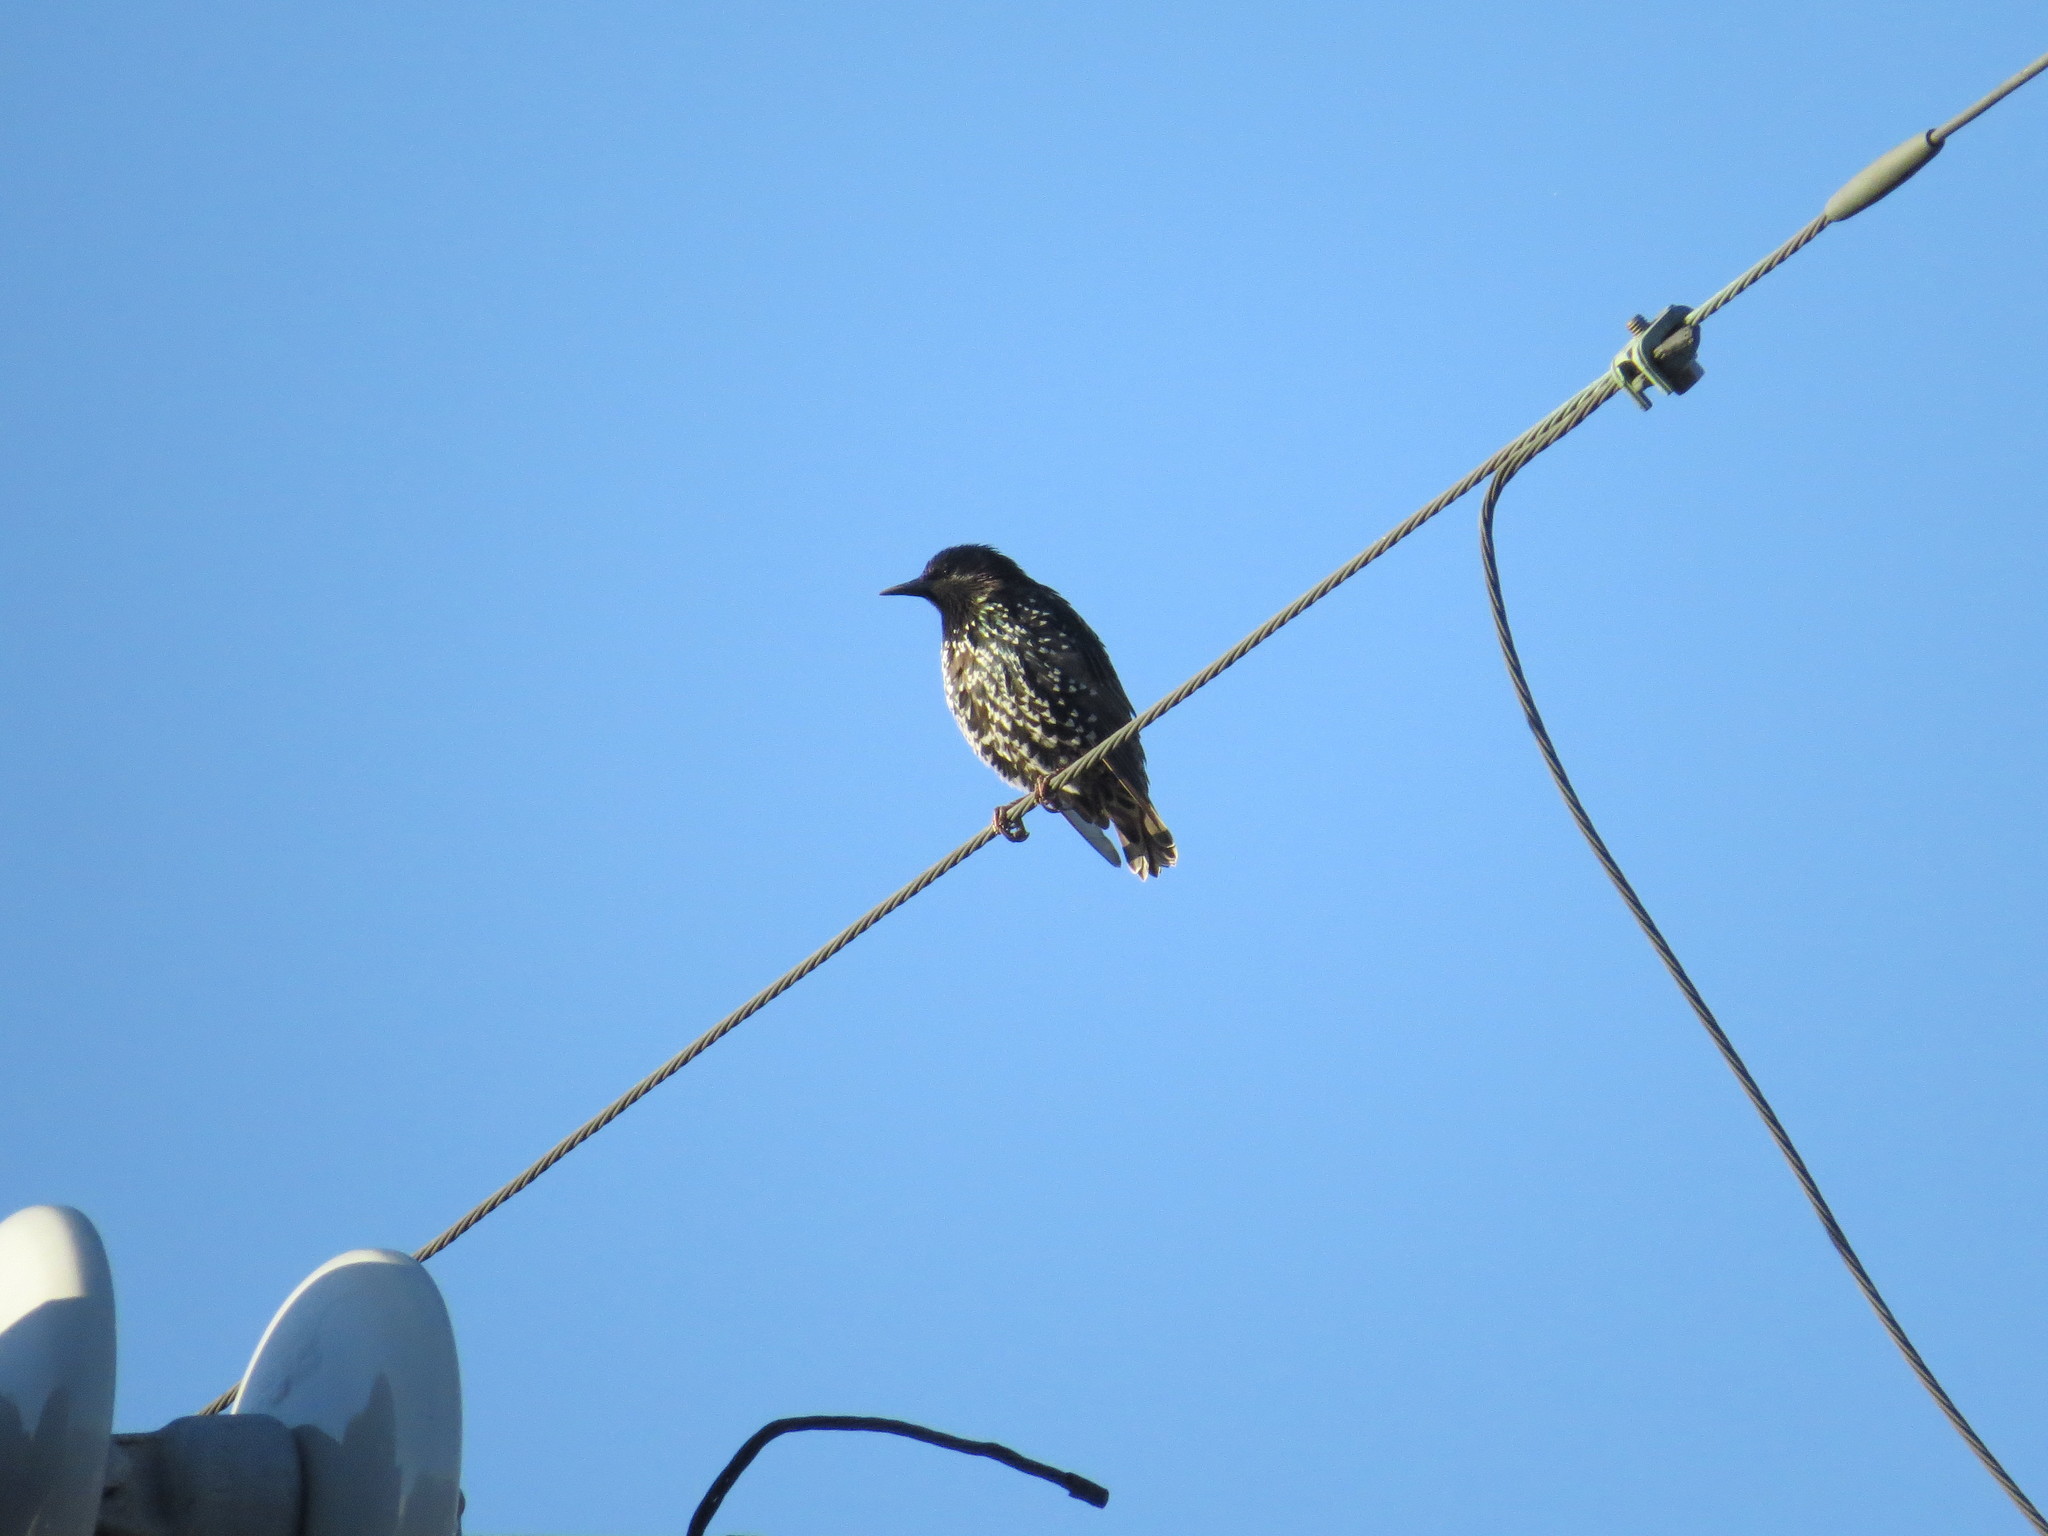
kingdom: Animalia
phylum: Chordata
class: Aves
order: Passeriformes
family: Sturnidae
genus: Sturnus
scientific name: Sturnus vulgaris
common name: Common starling
